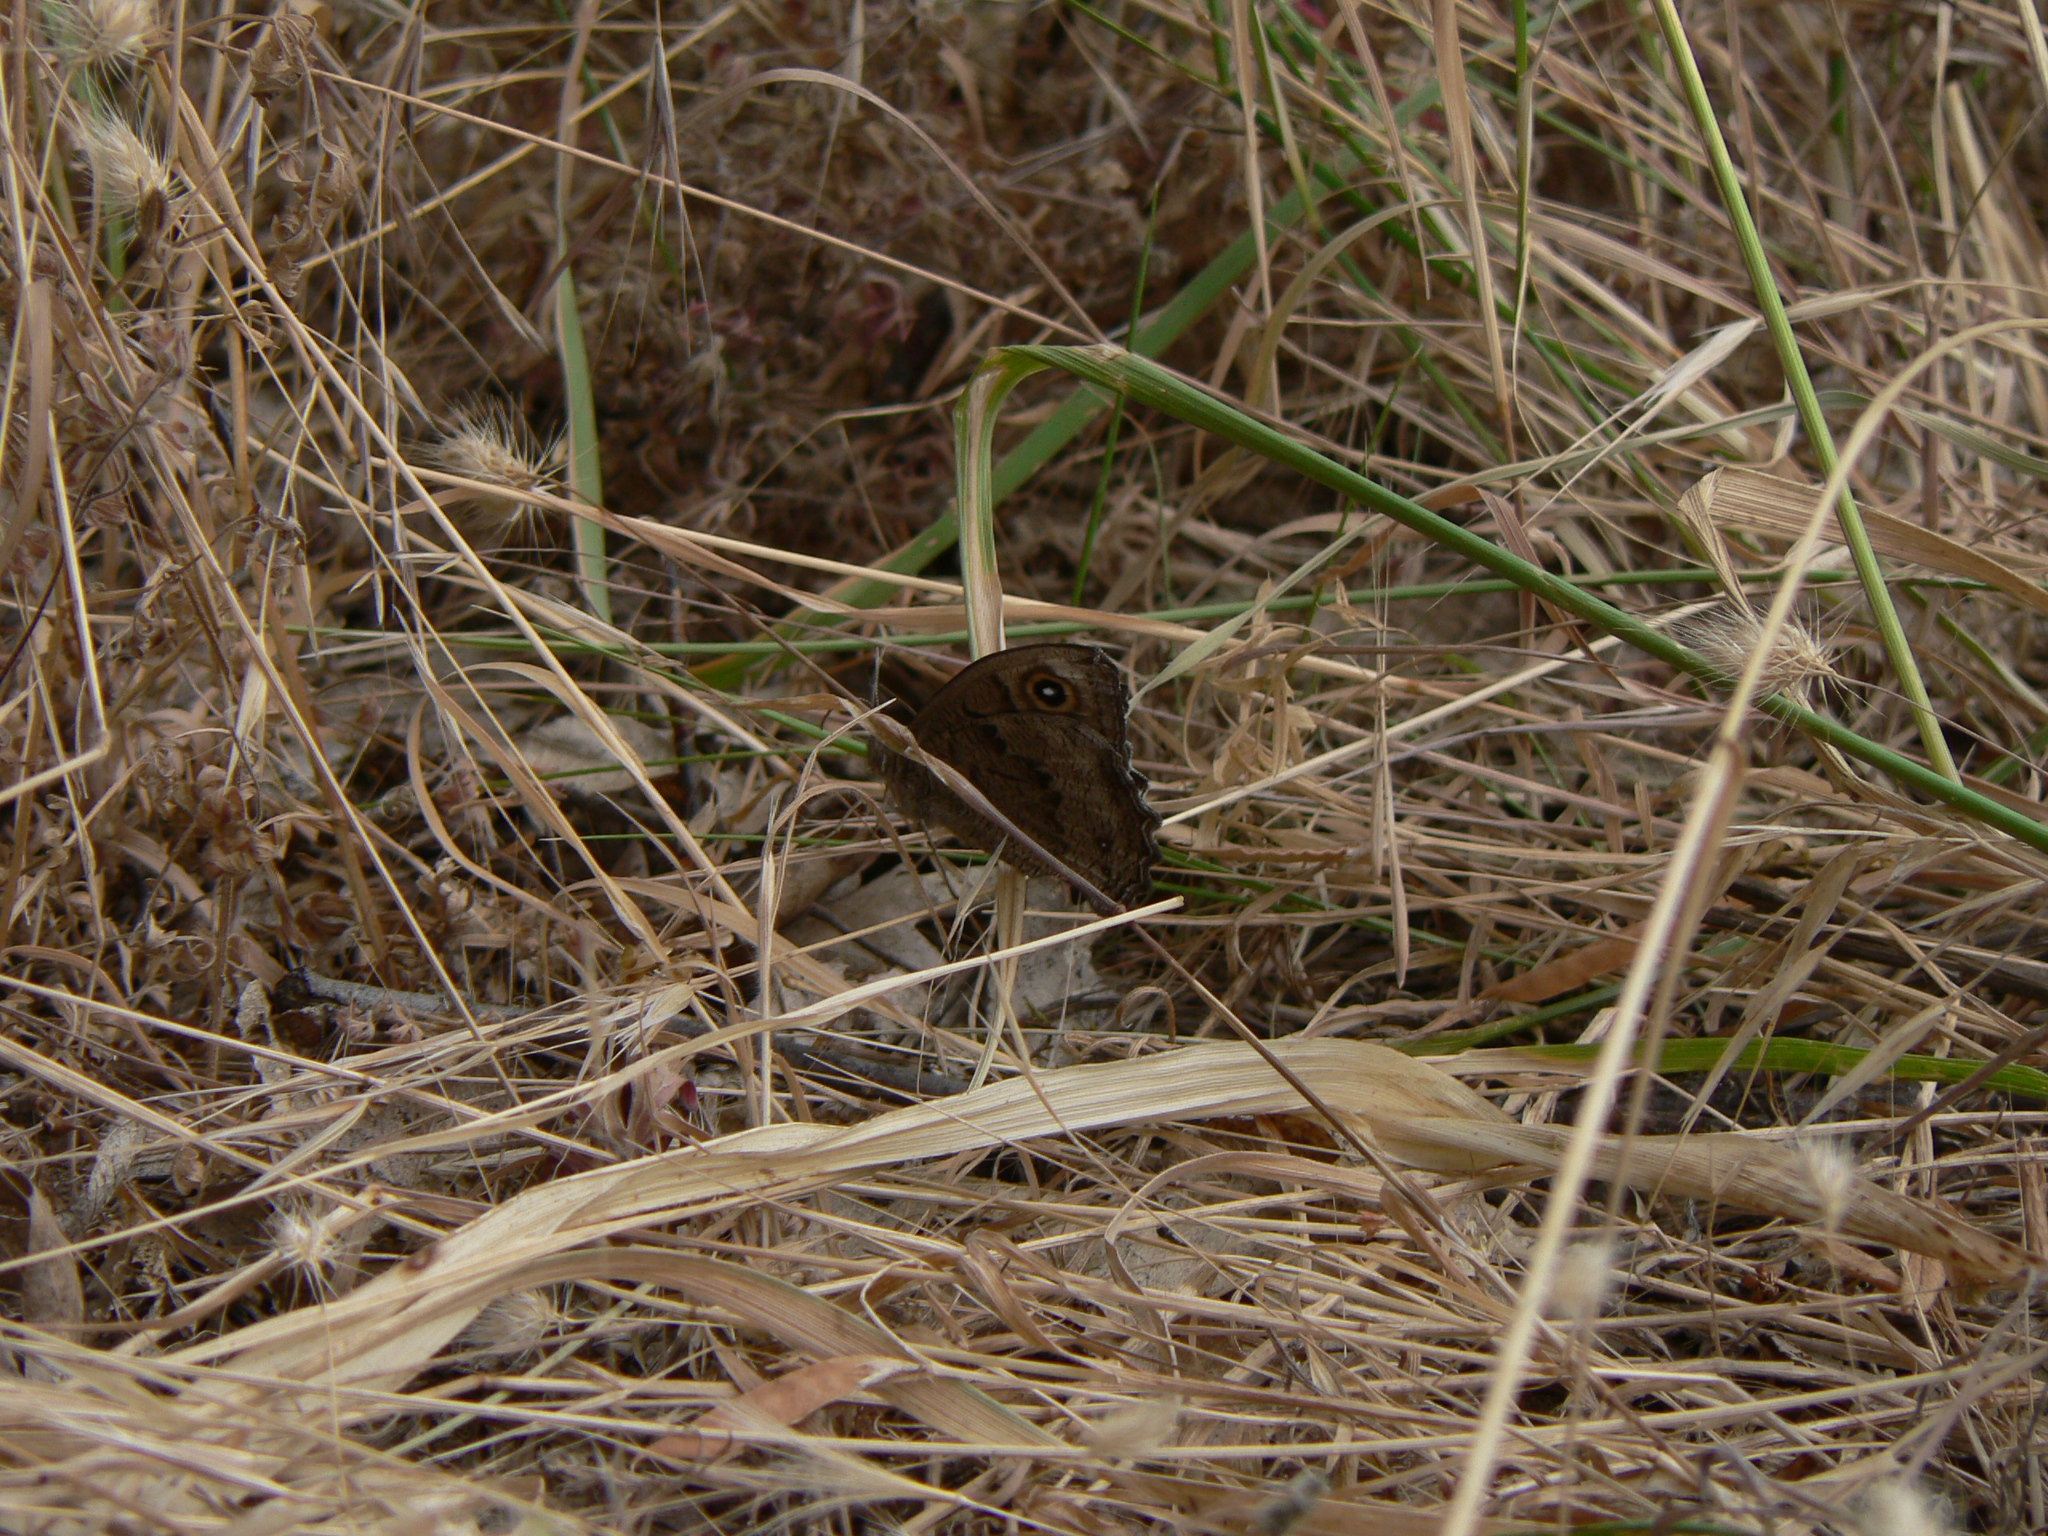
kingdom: Animalia
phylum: Arthropoda
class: Insecta
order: Lepidoptera
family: Nymphalidae
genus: Cercyonis
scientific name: Cercyonis pegala
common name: Common wood-nymph
